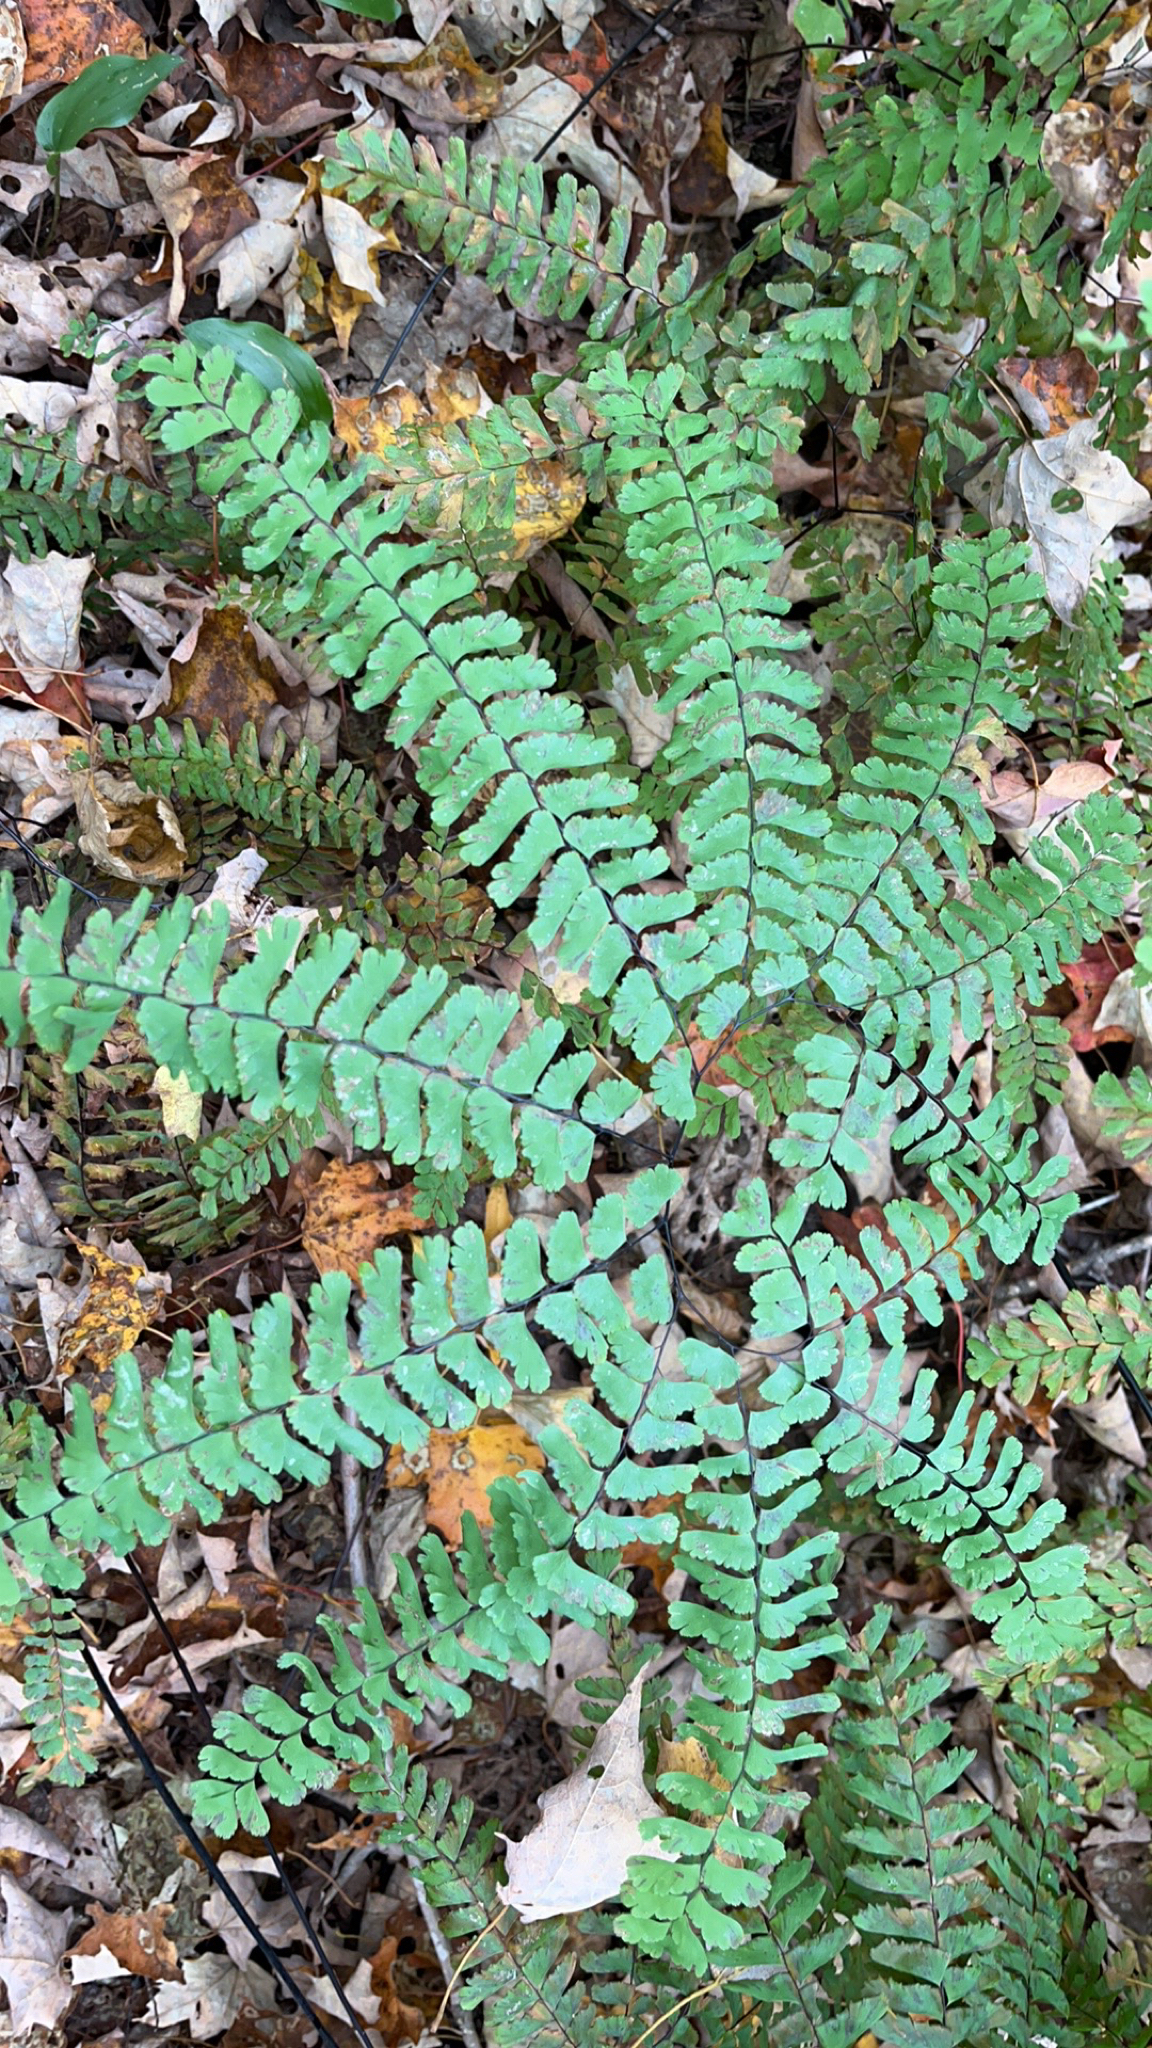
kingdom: Plantae
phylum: Tracheophyta
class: Polypodiopsida
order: Polypodiales
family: Pteridaceae
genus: Adiantum
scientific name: Adiantum pedatum
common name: Five-finger fern
